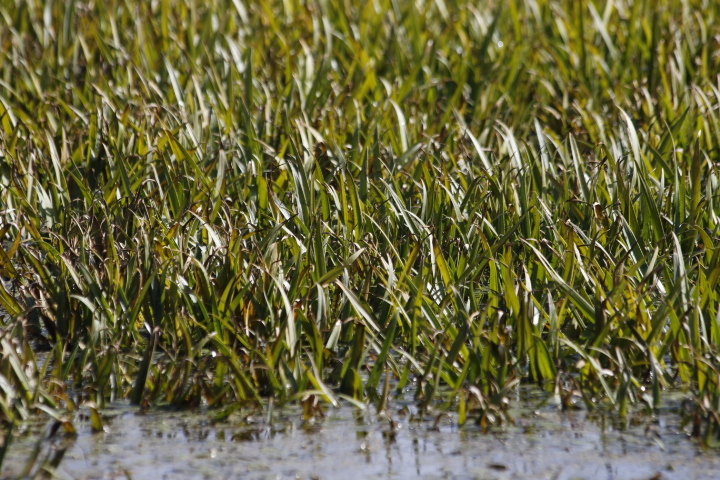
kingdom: Plantae
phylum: Tracheophyta
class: Liliopsida
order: Alismatales
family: Hydrocharitaceae
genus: Stratiotes
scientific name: Stratiotes aloides
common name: Water-soldier
